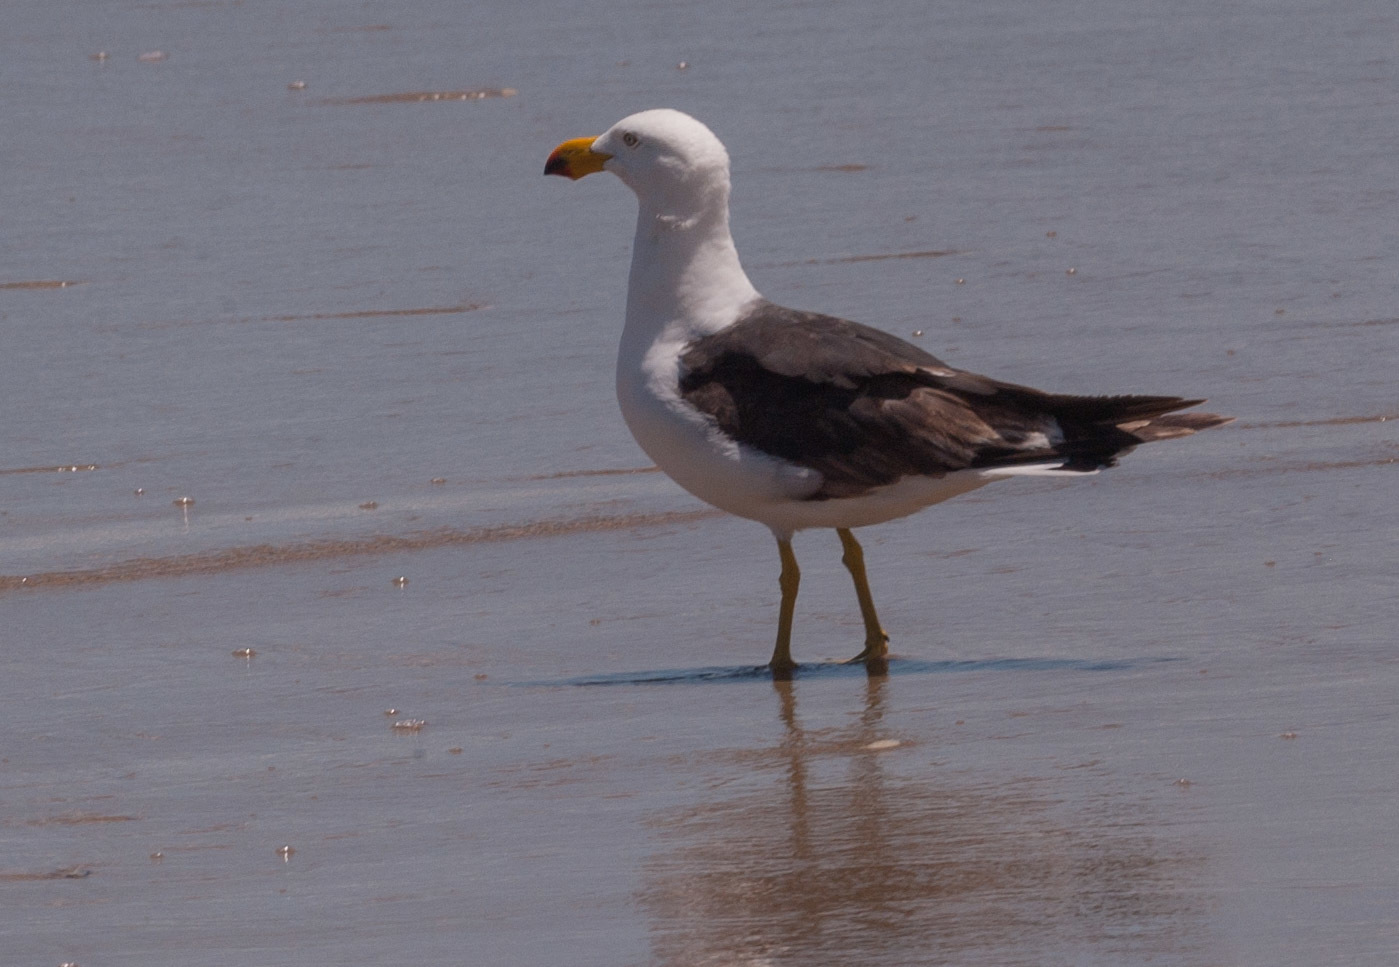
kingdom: Animalia
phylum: Chordata
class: Aves
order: Charadriiformes
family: Laridae
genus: Larus
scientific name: Larus pacificus
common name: Pacific gull
